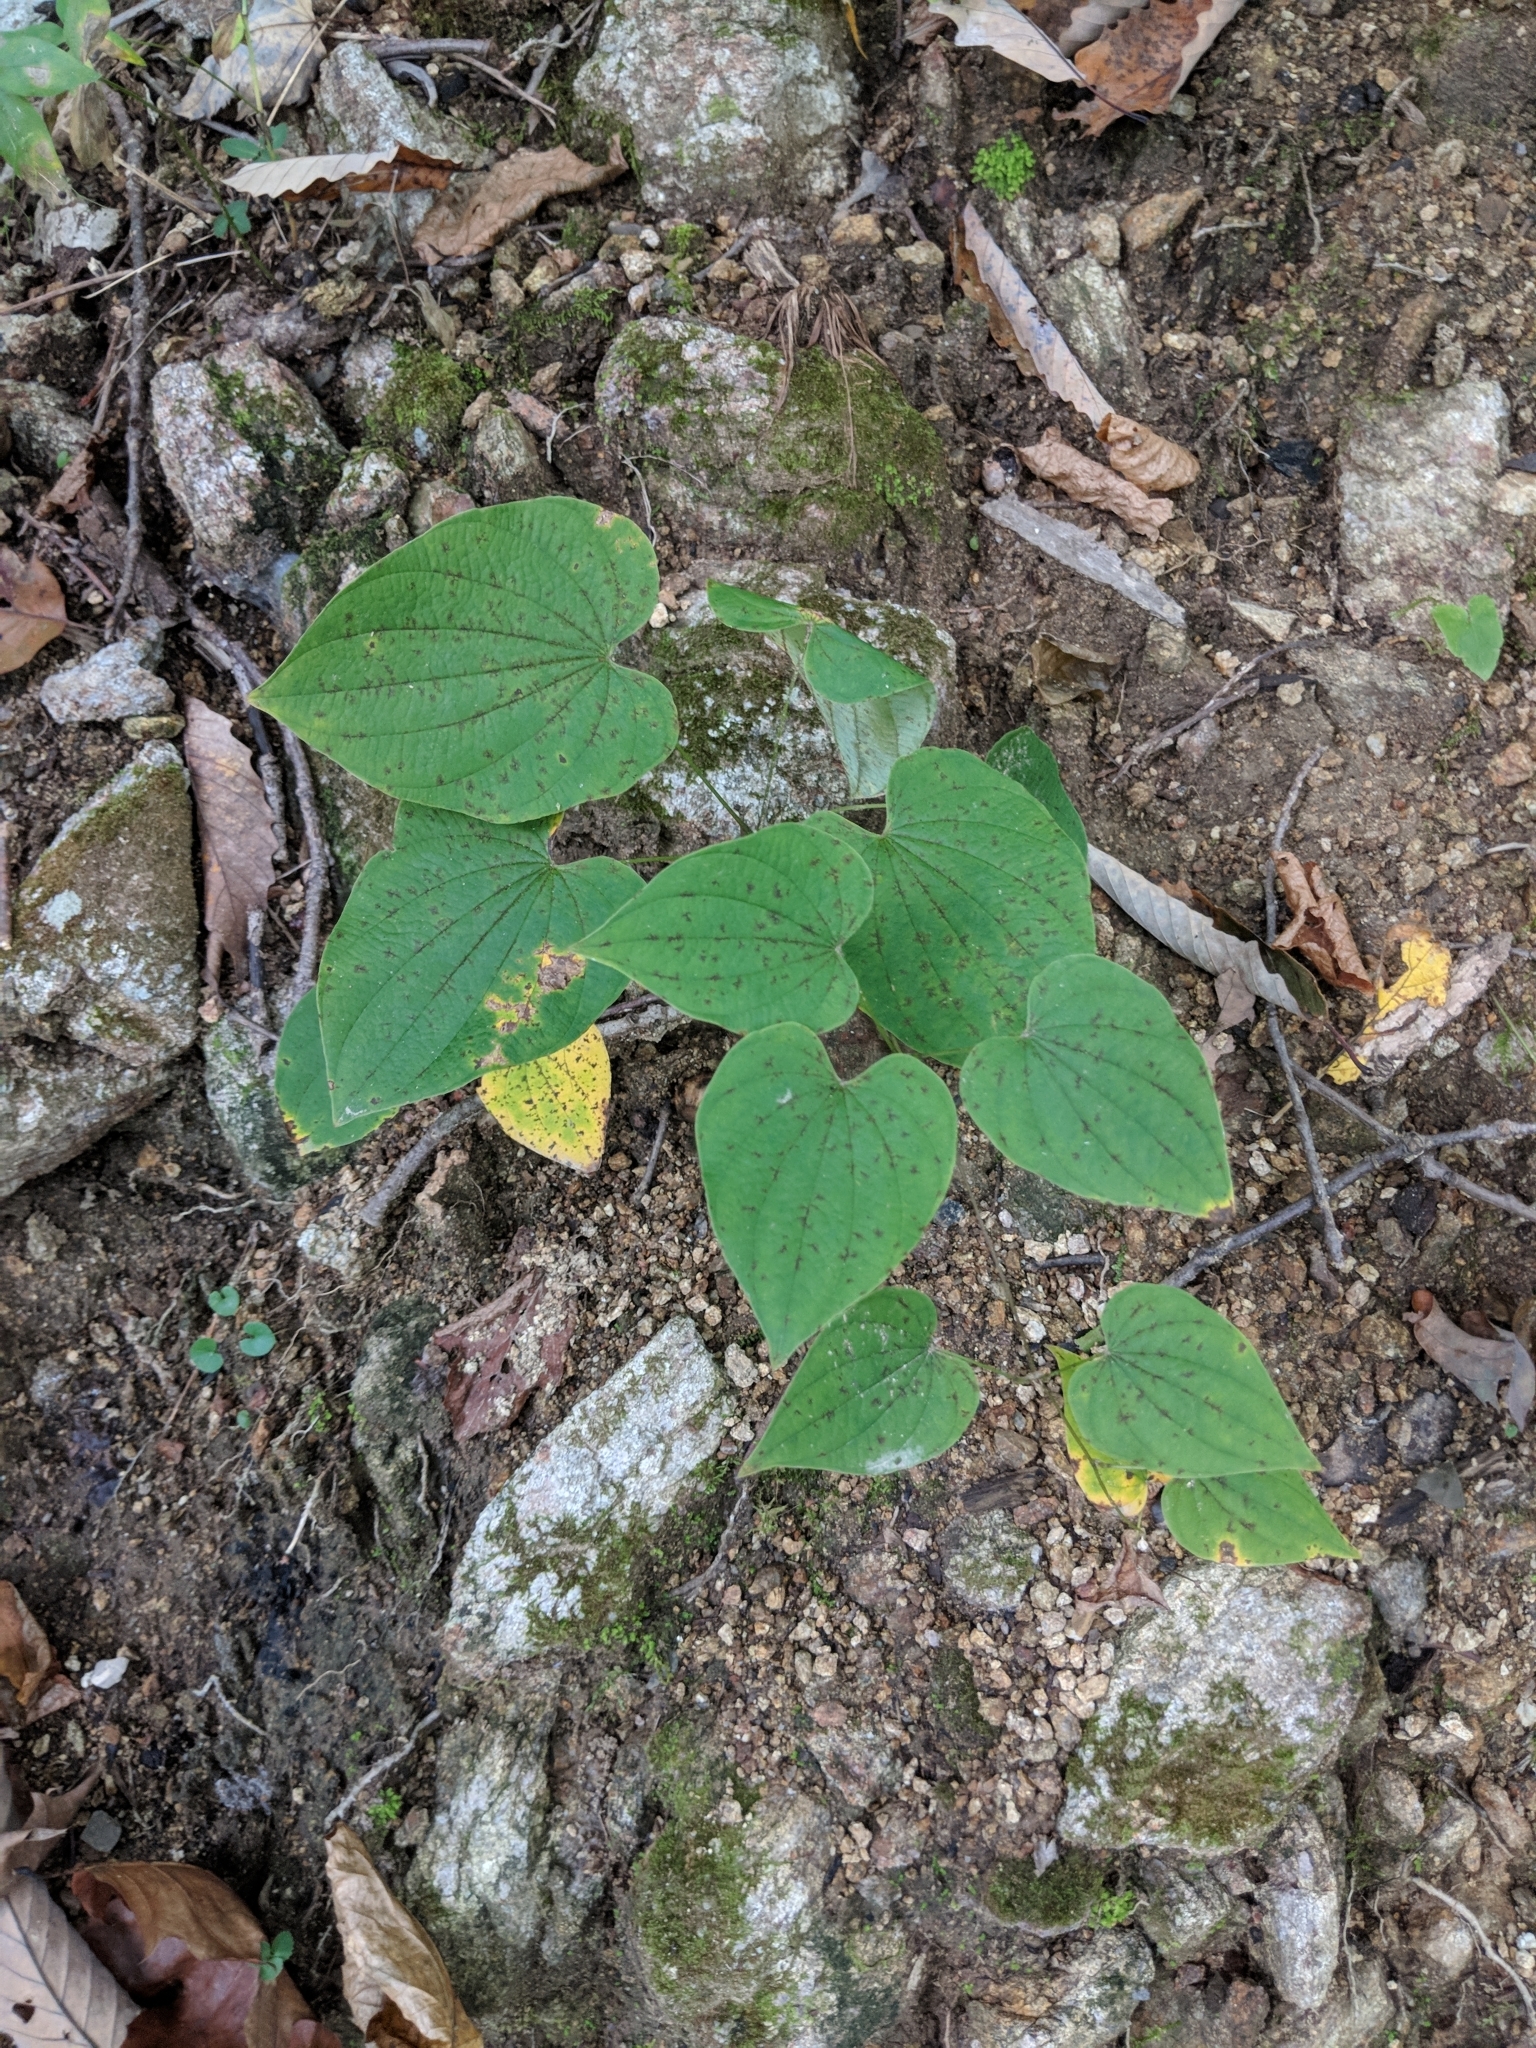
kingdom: Plantae
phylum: Tracheophyta
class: Liliopsida
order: Dioscoreales
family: Dioscoreaceae
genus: Dioscorea
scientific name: Dioscorea villosa
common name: Wild yam
